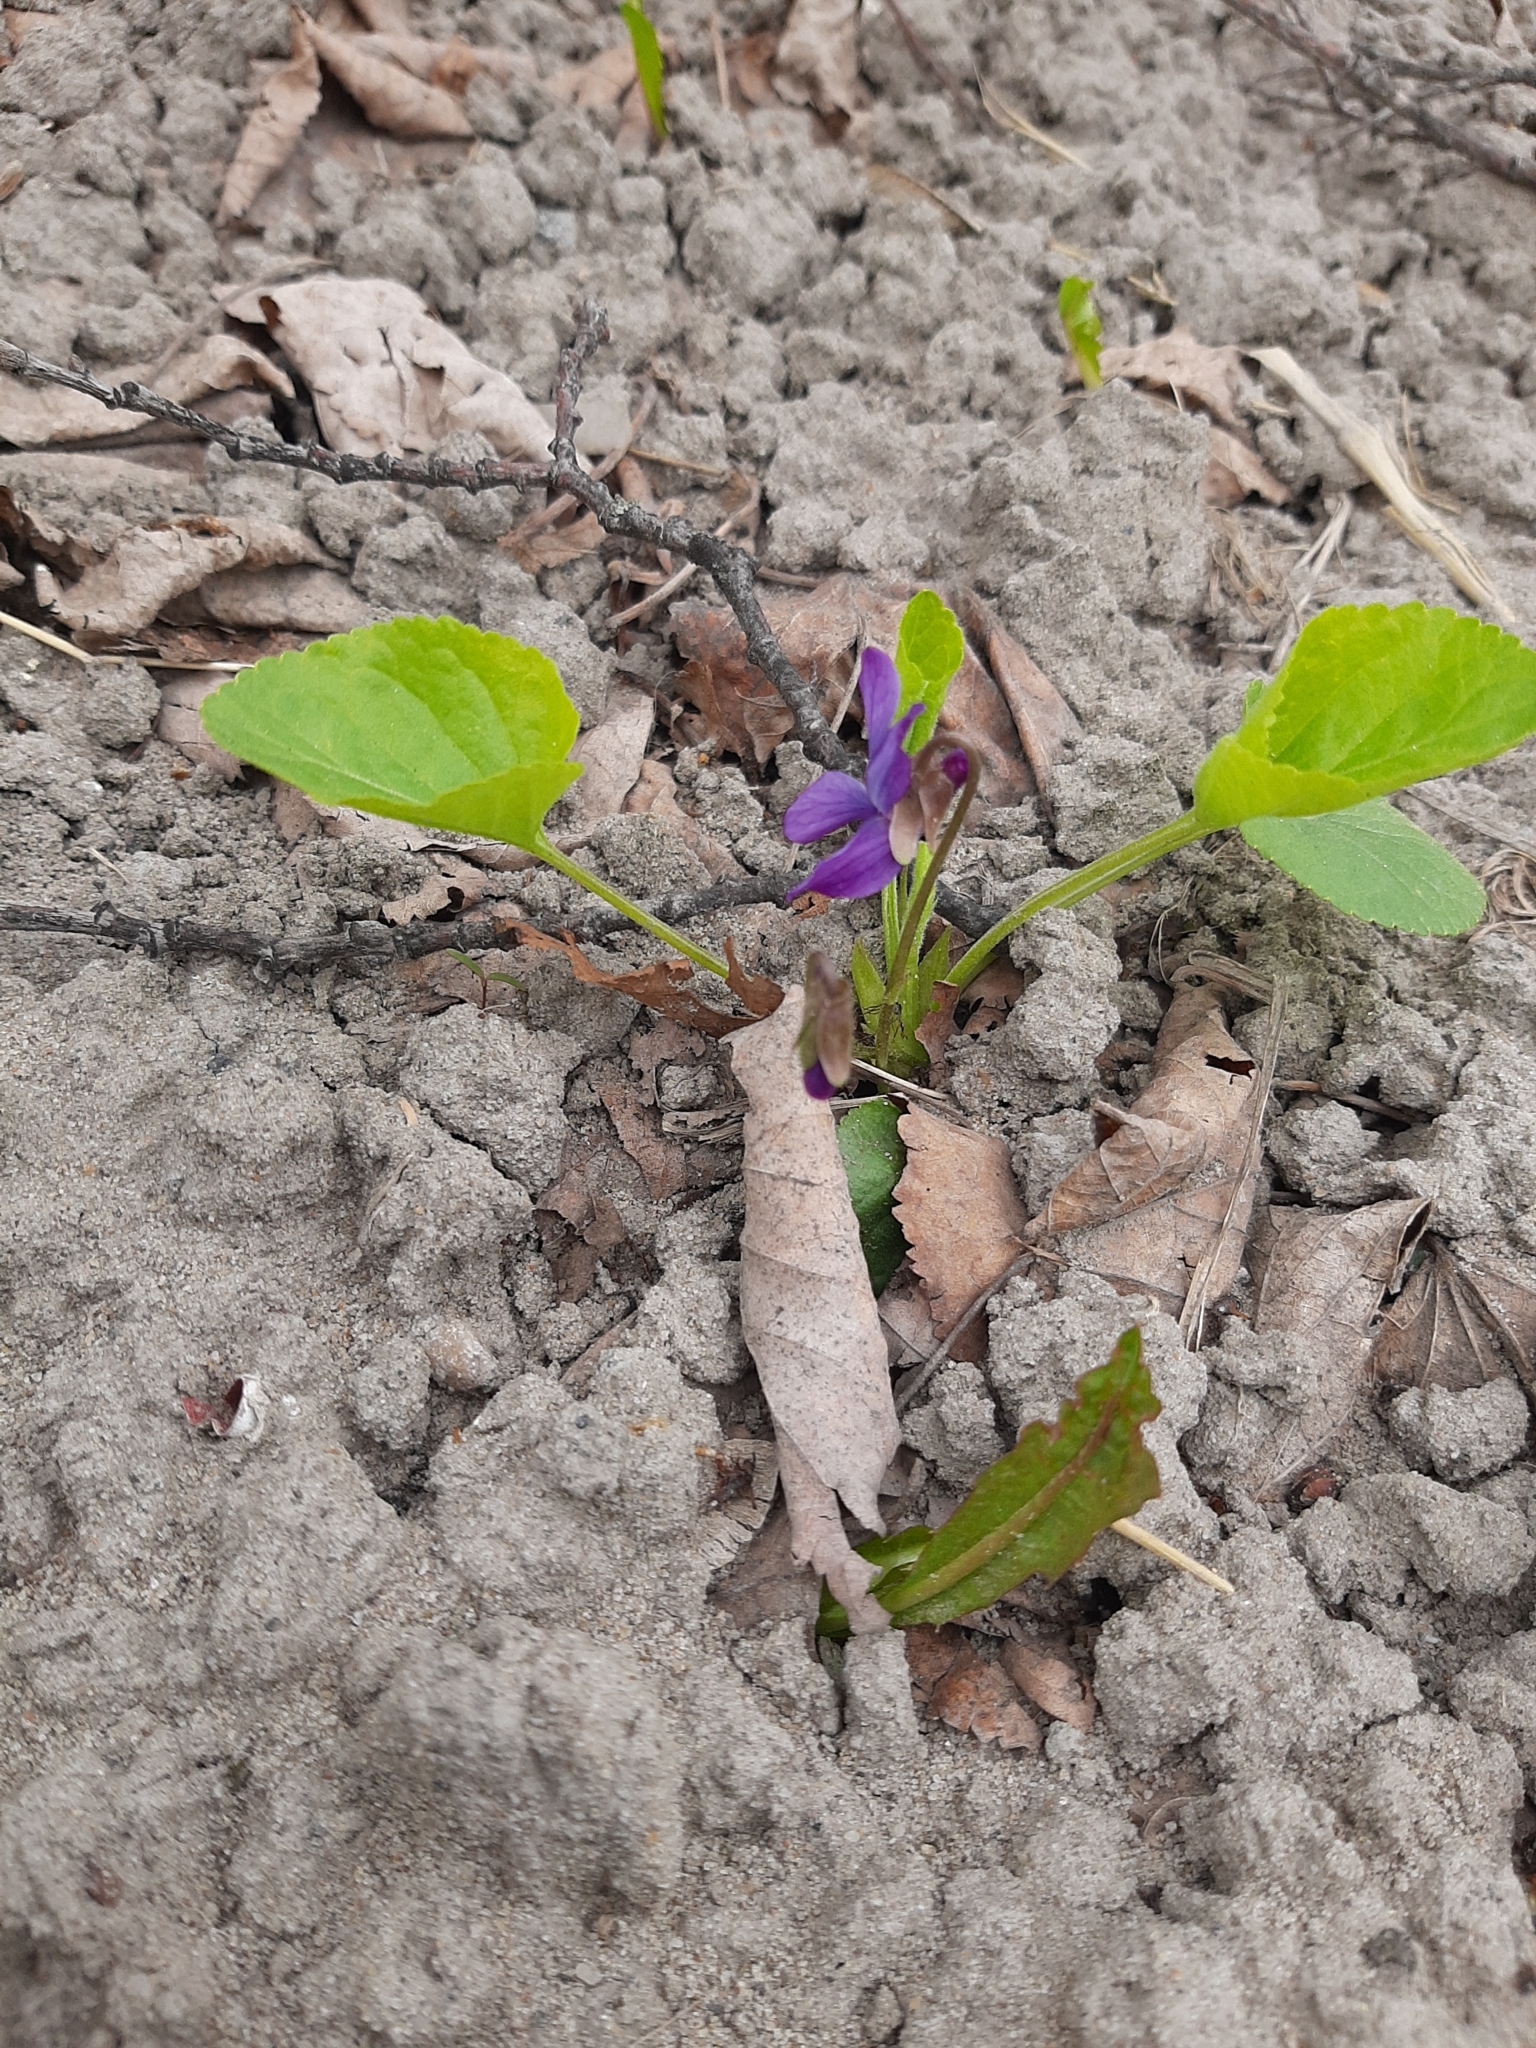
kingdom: Plantae
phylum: Tracheophyta
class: Magnoliopsida
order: Malpighiales
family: Violaceae
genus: Viola
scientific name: Viola odorata
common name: Sweet violet
